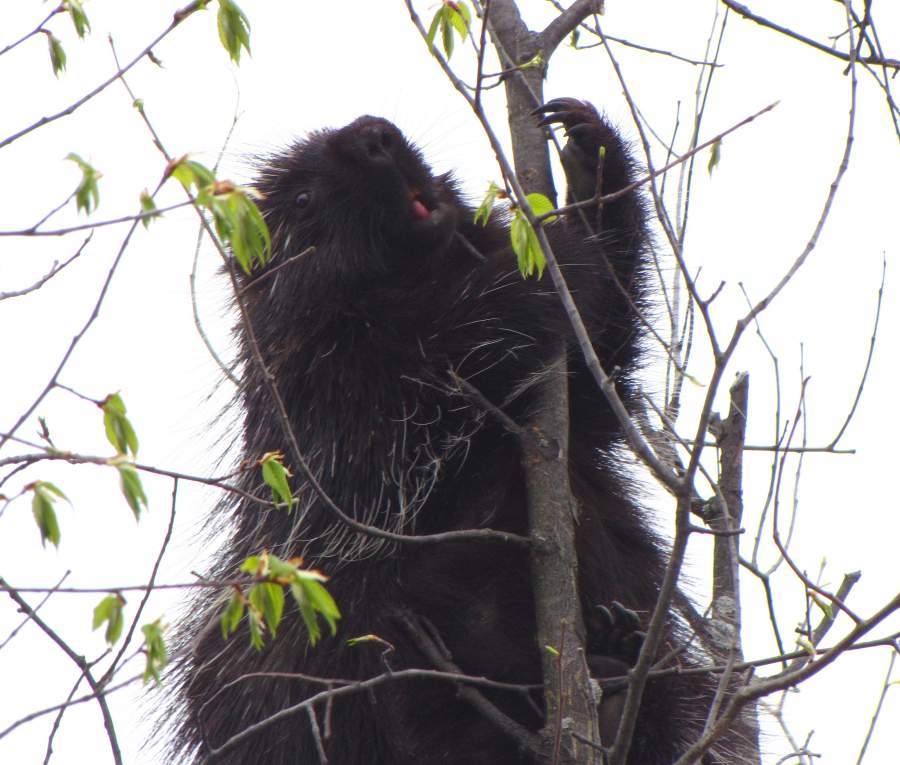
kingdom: Animalia
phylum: Chordata
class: Mammalia
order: Rodentia
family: Erethizontidae
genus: Erethizon
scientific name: Erethizon dorsatus
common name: North american porcupine
